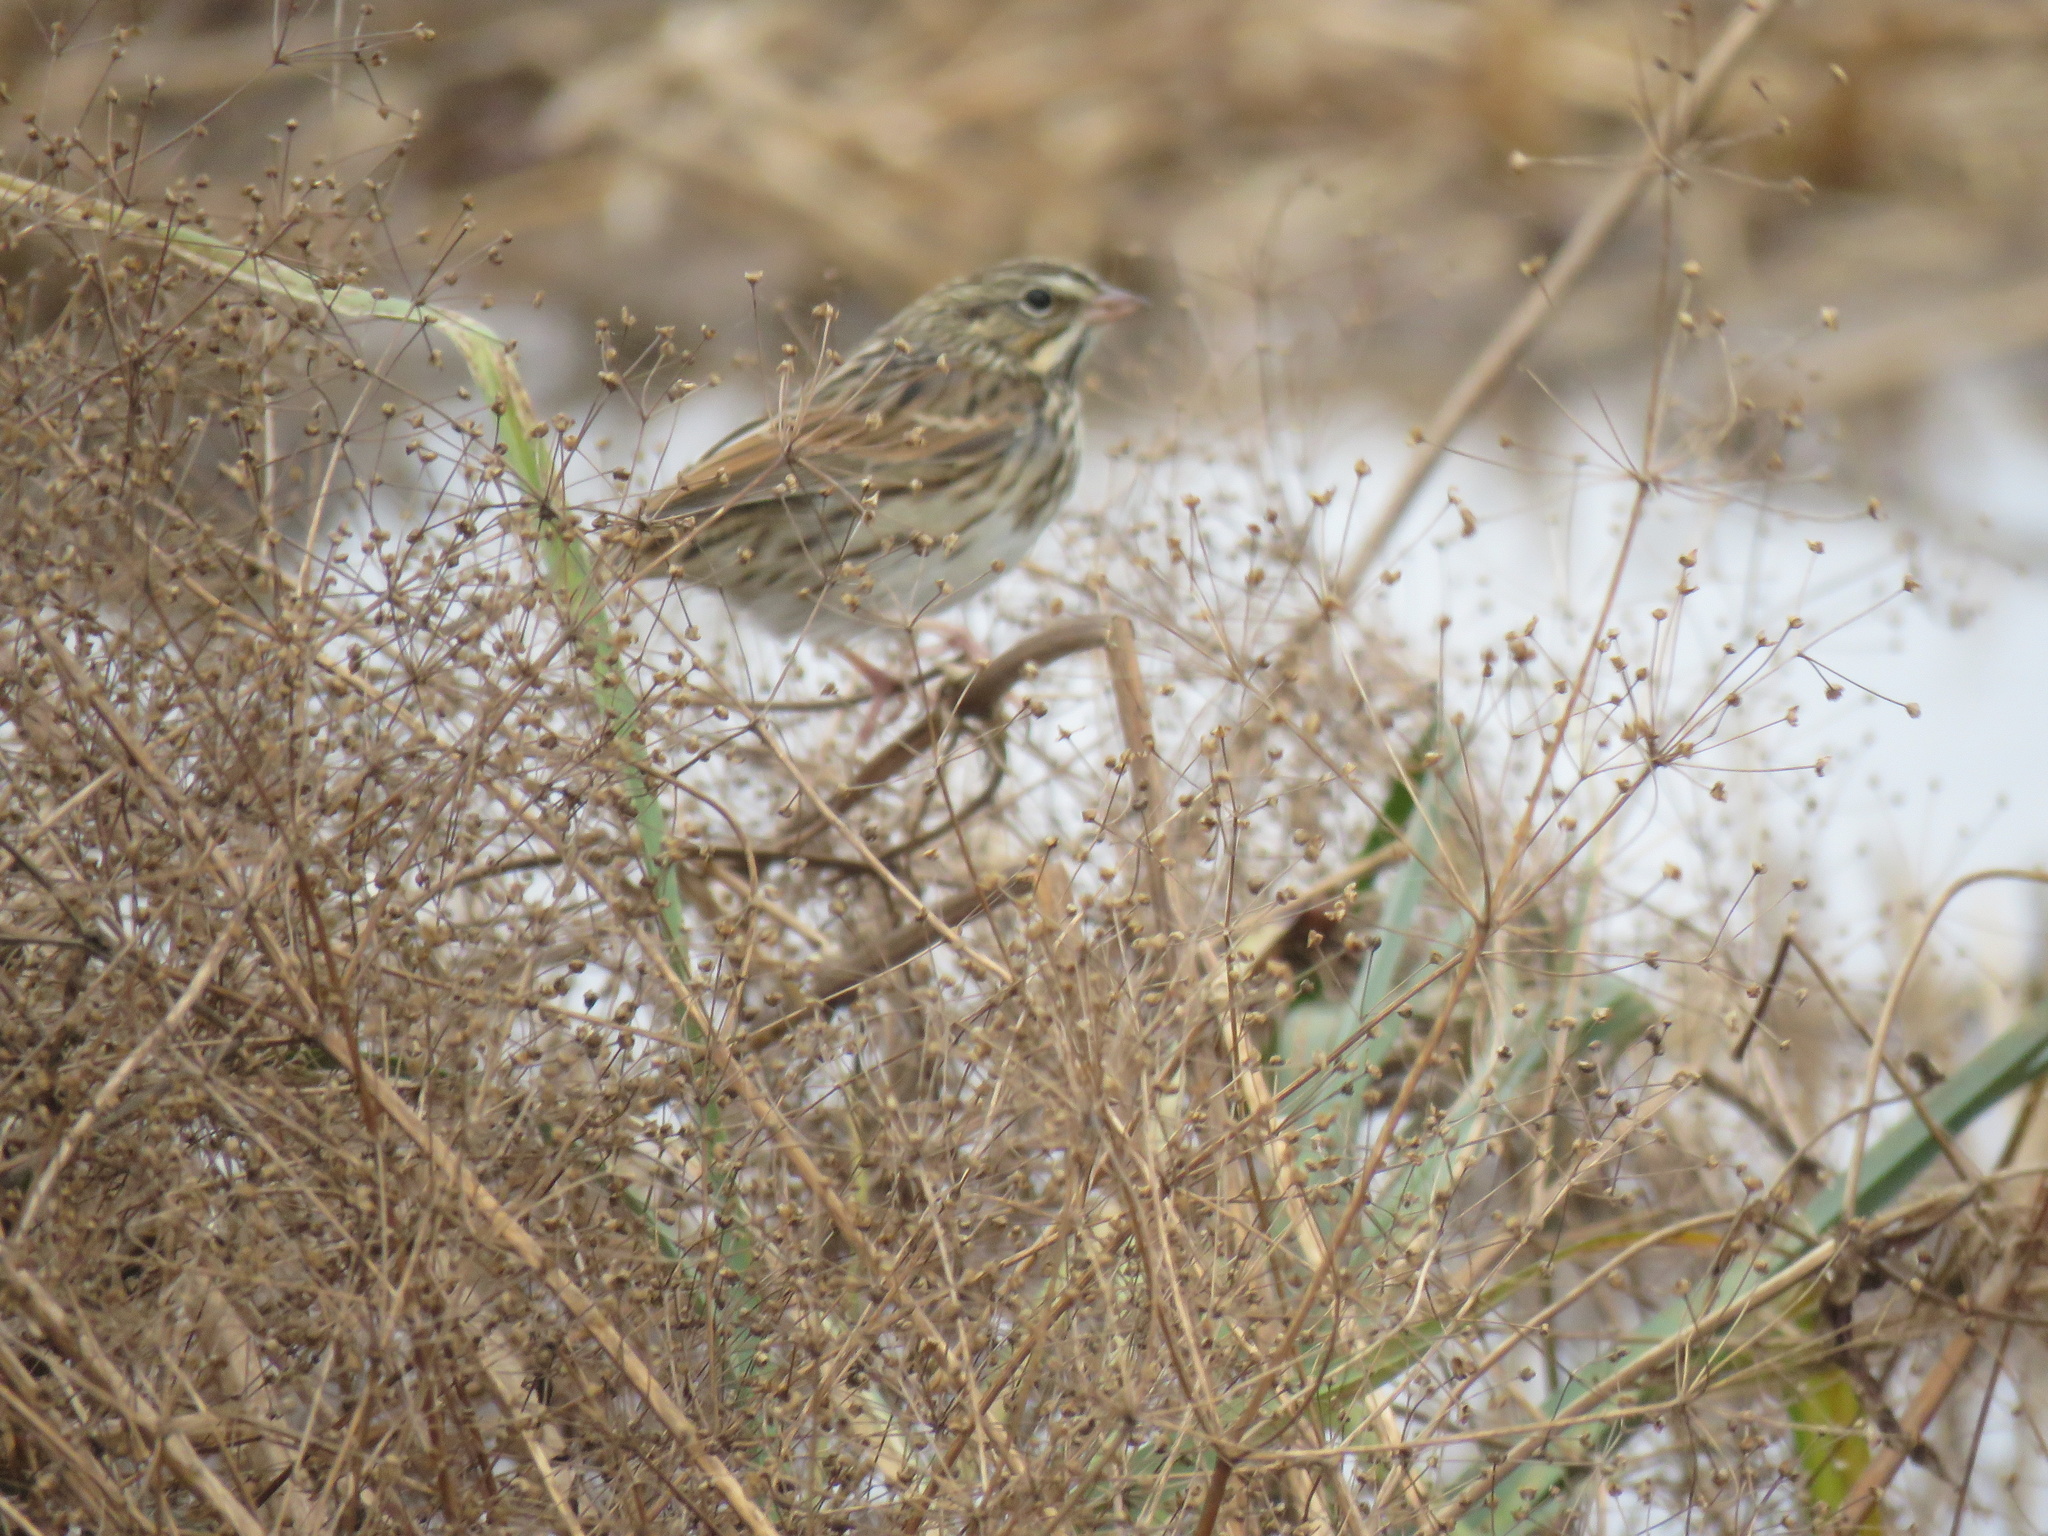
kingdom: Animalia
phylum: Chordata
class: Aves
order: Passeriformes
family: Passerellidae
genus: Passerculus
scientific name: Passerculus sandwichensis
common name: Savannah sparrow
